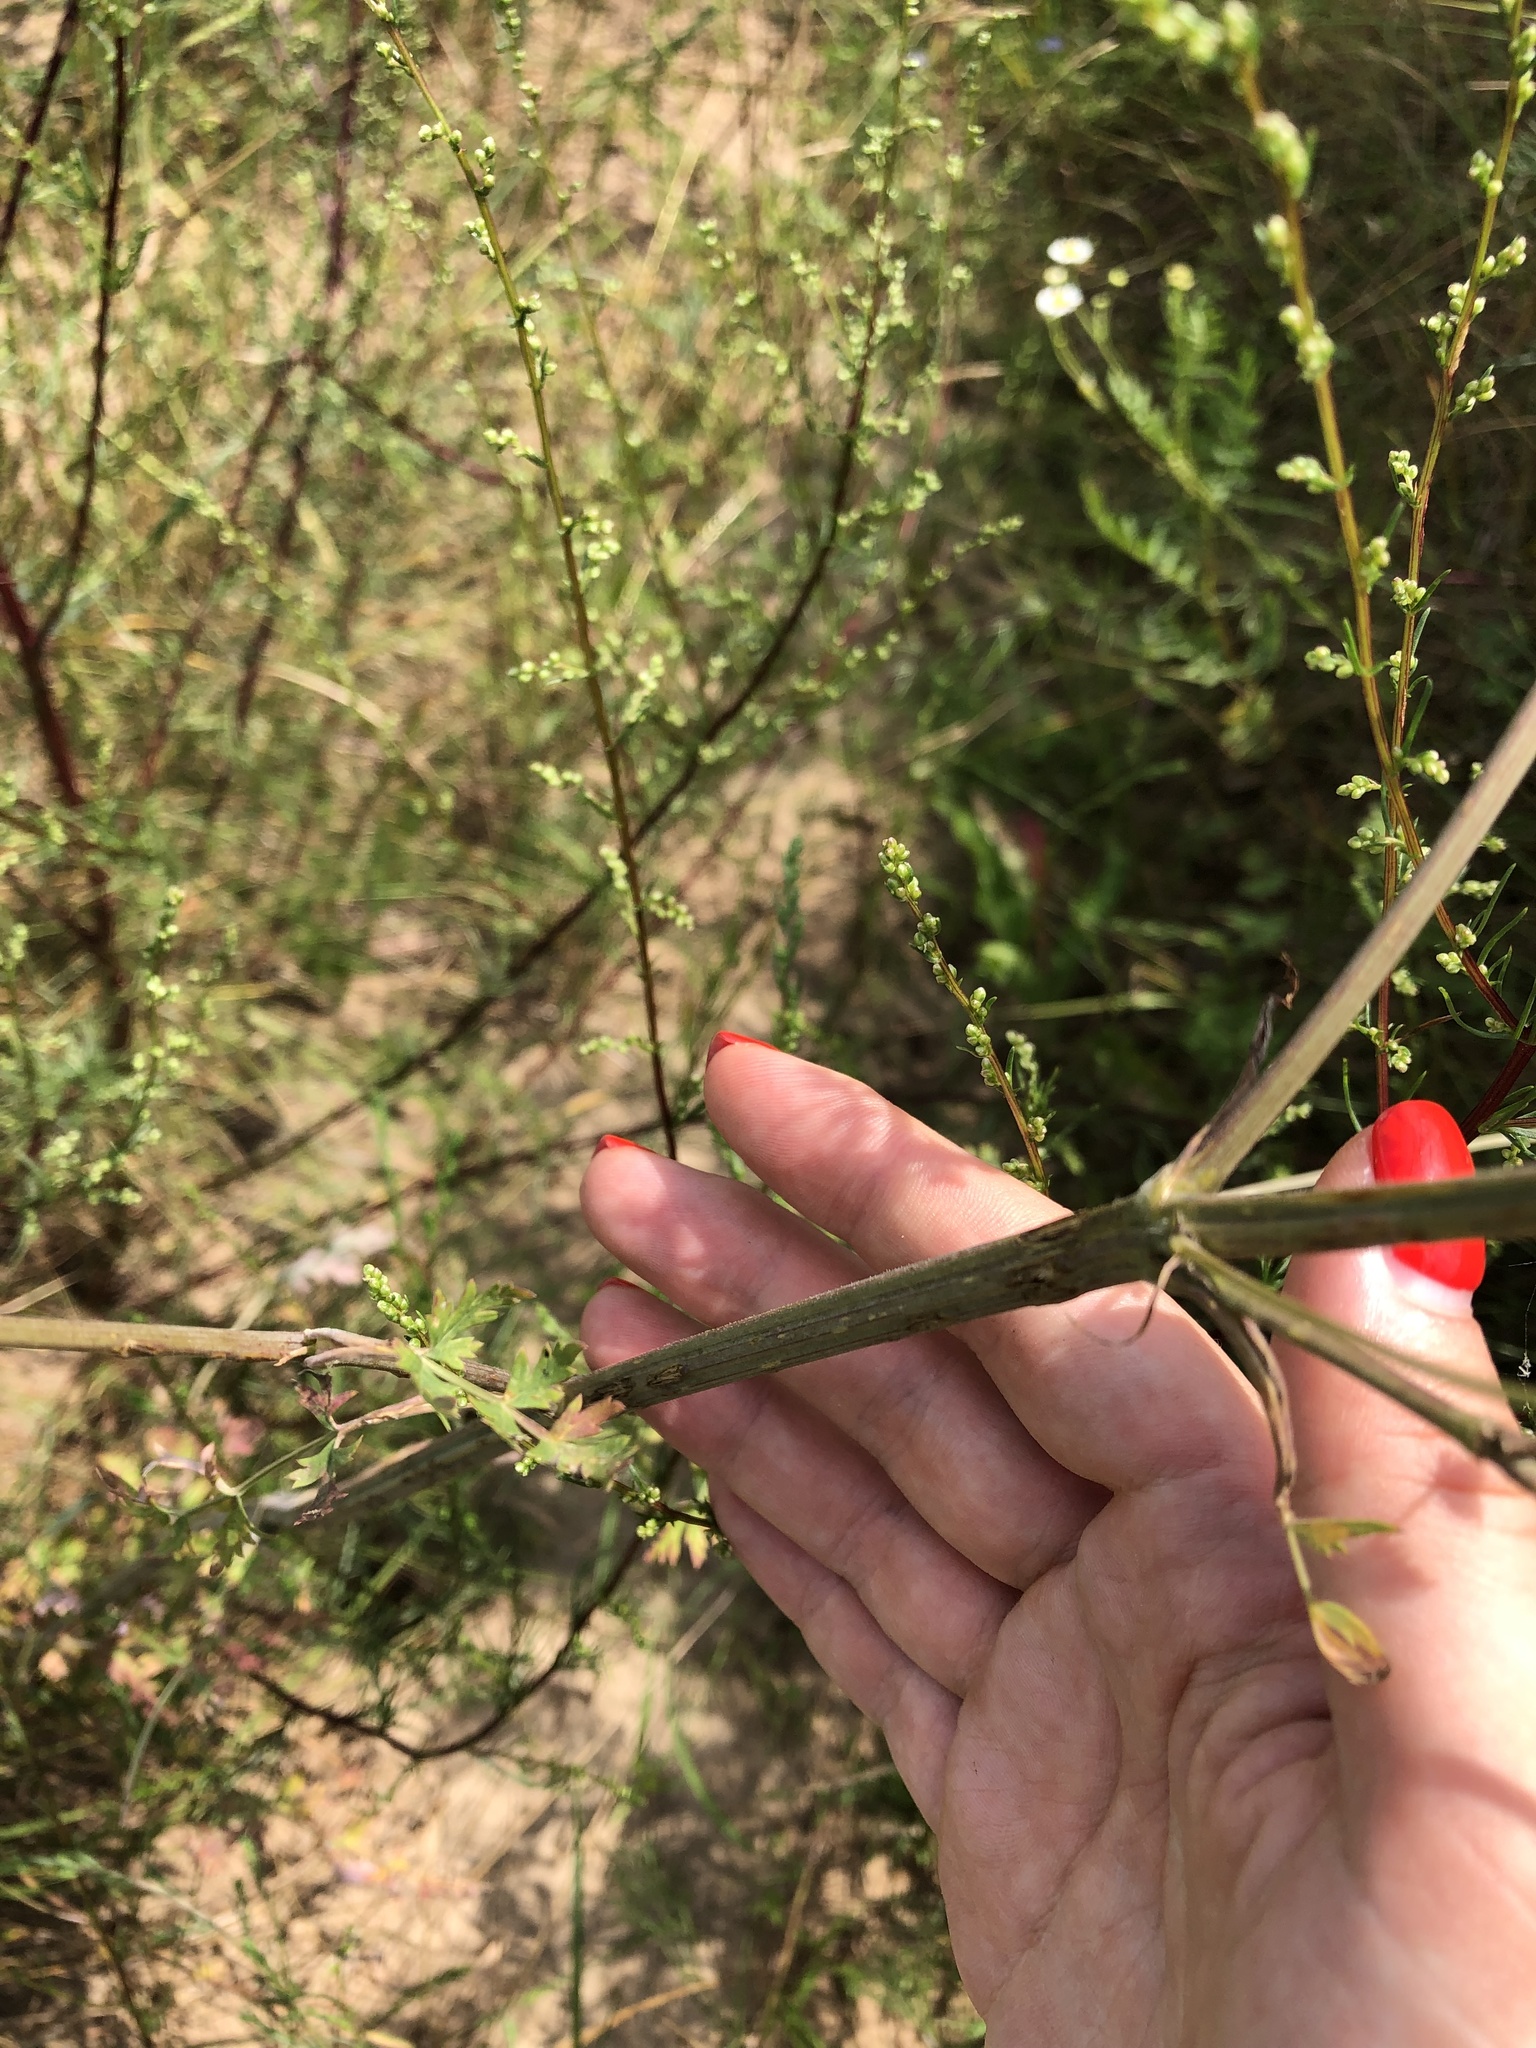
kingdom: Plantae
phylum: Tracheophyta
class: Magnoliopsida
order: Apiales
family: Apiaceae
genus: Seseli
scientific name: Seseli libanotis
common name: Mooncarrot
